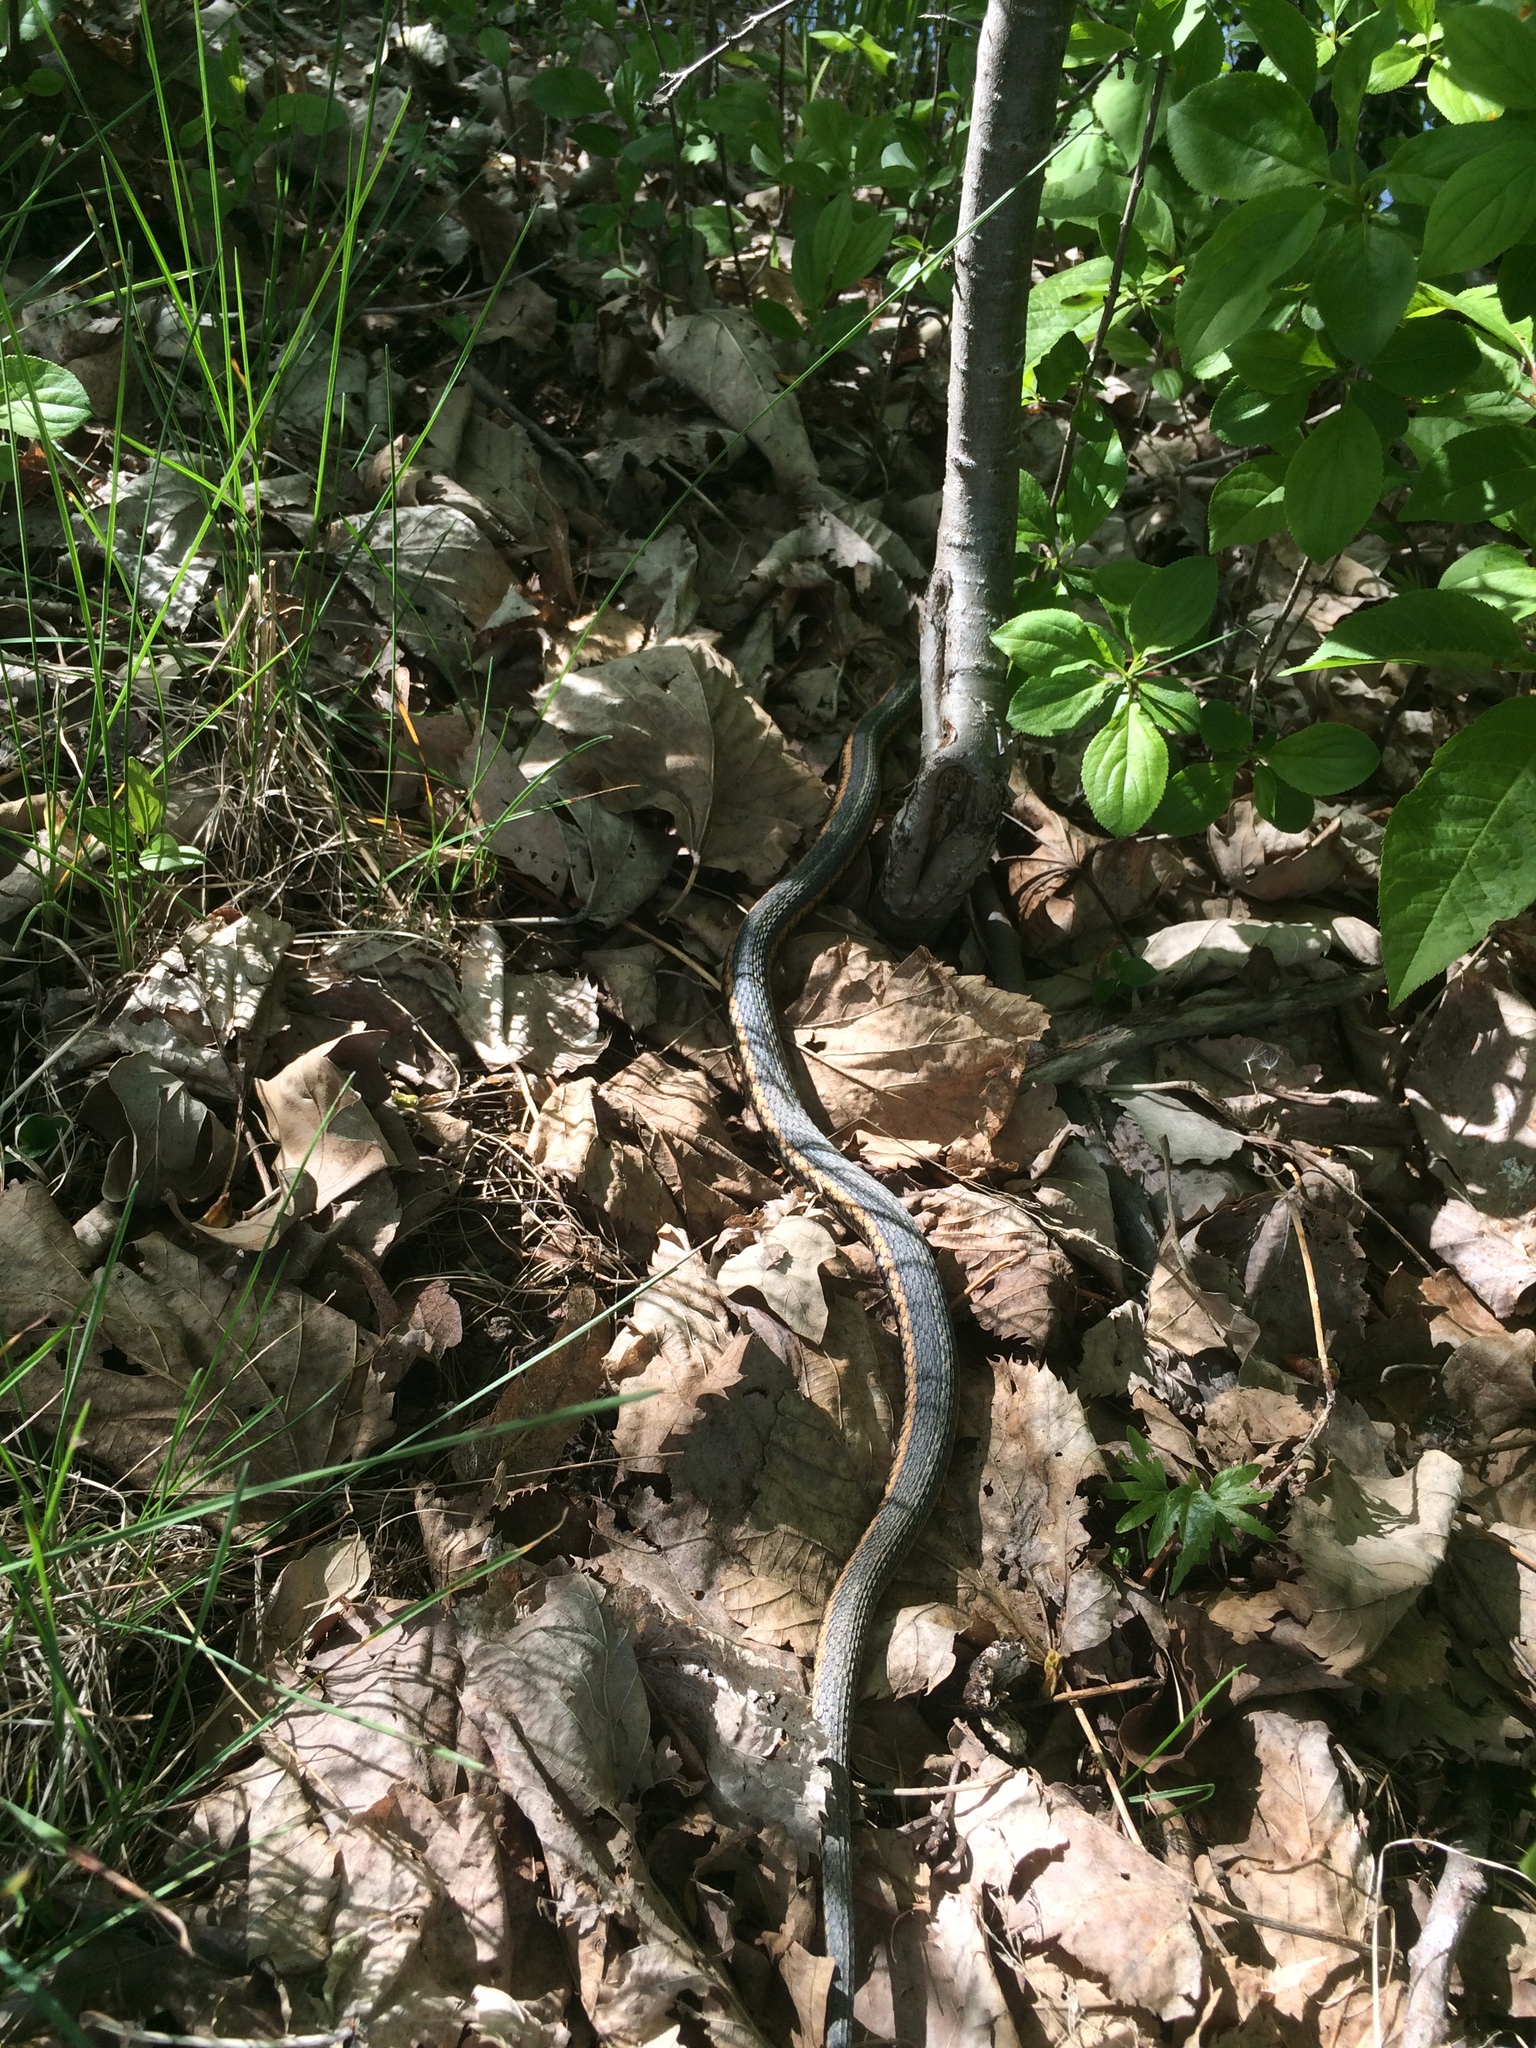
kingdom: Animalia
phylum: Chordata
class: Squamata
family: Colubridae
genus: Thamnophis
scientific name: Thamnophis sirtalis
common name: Common garter snake
